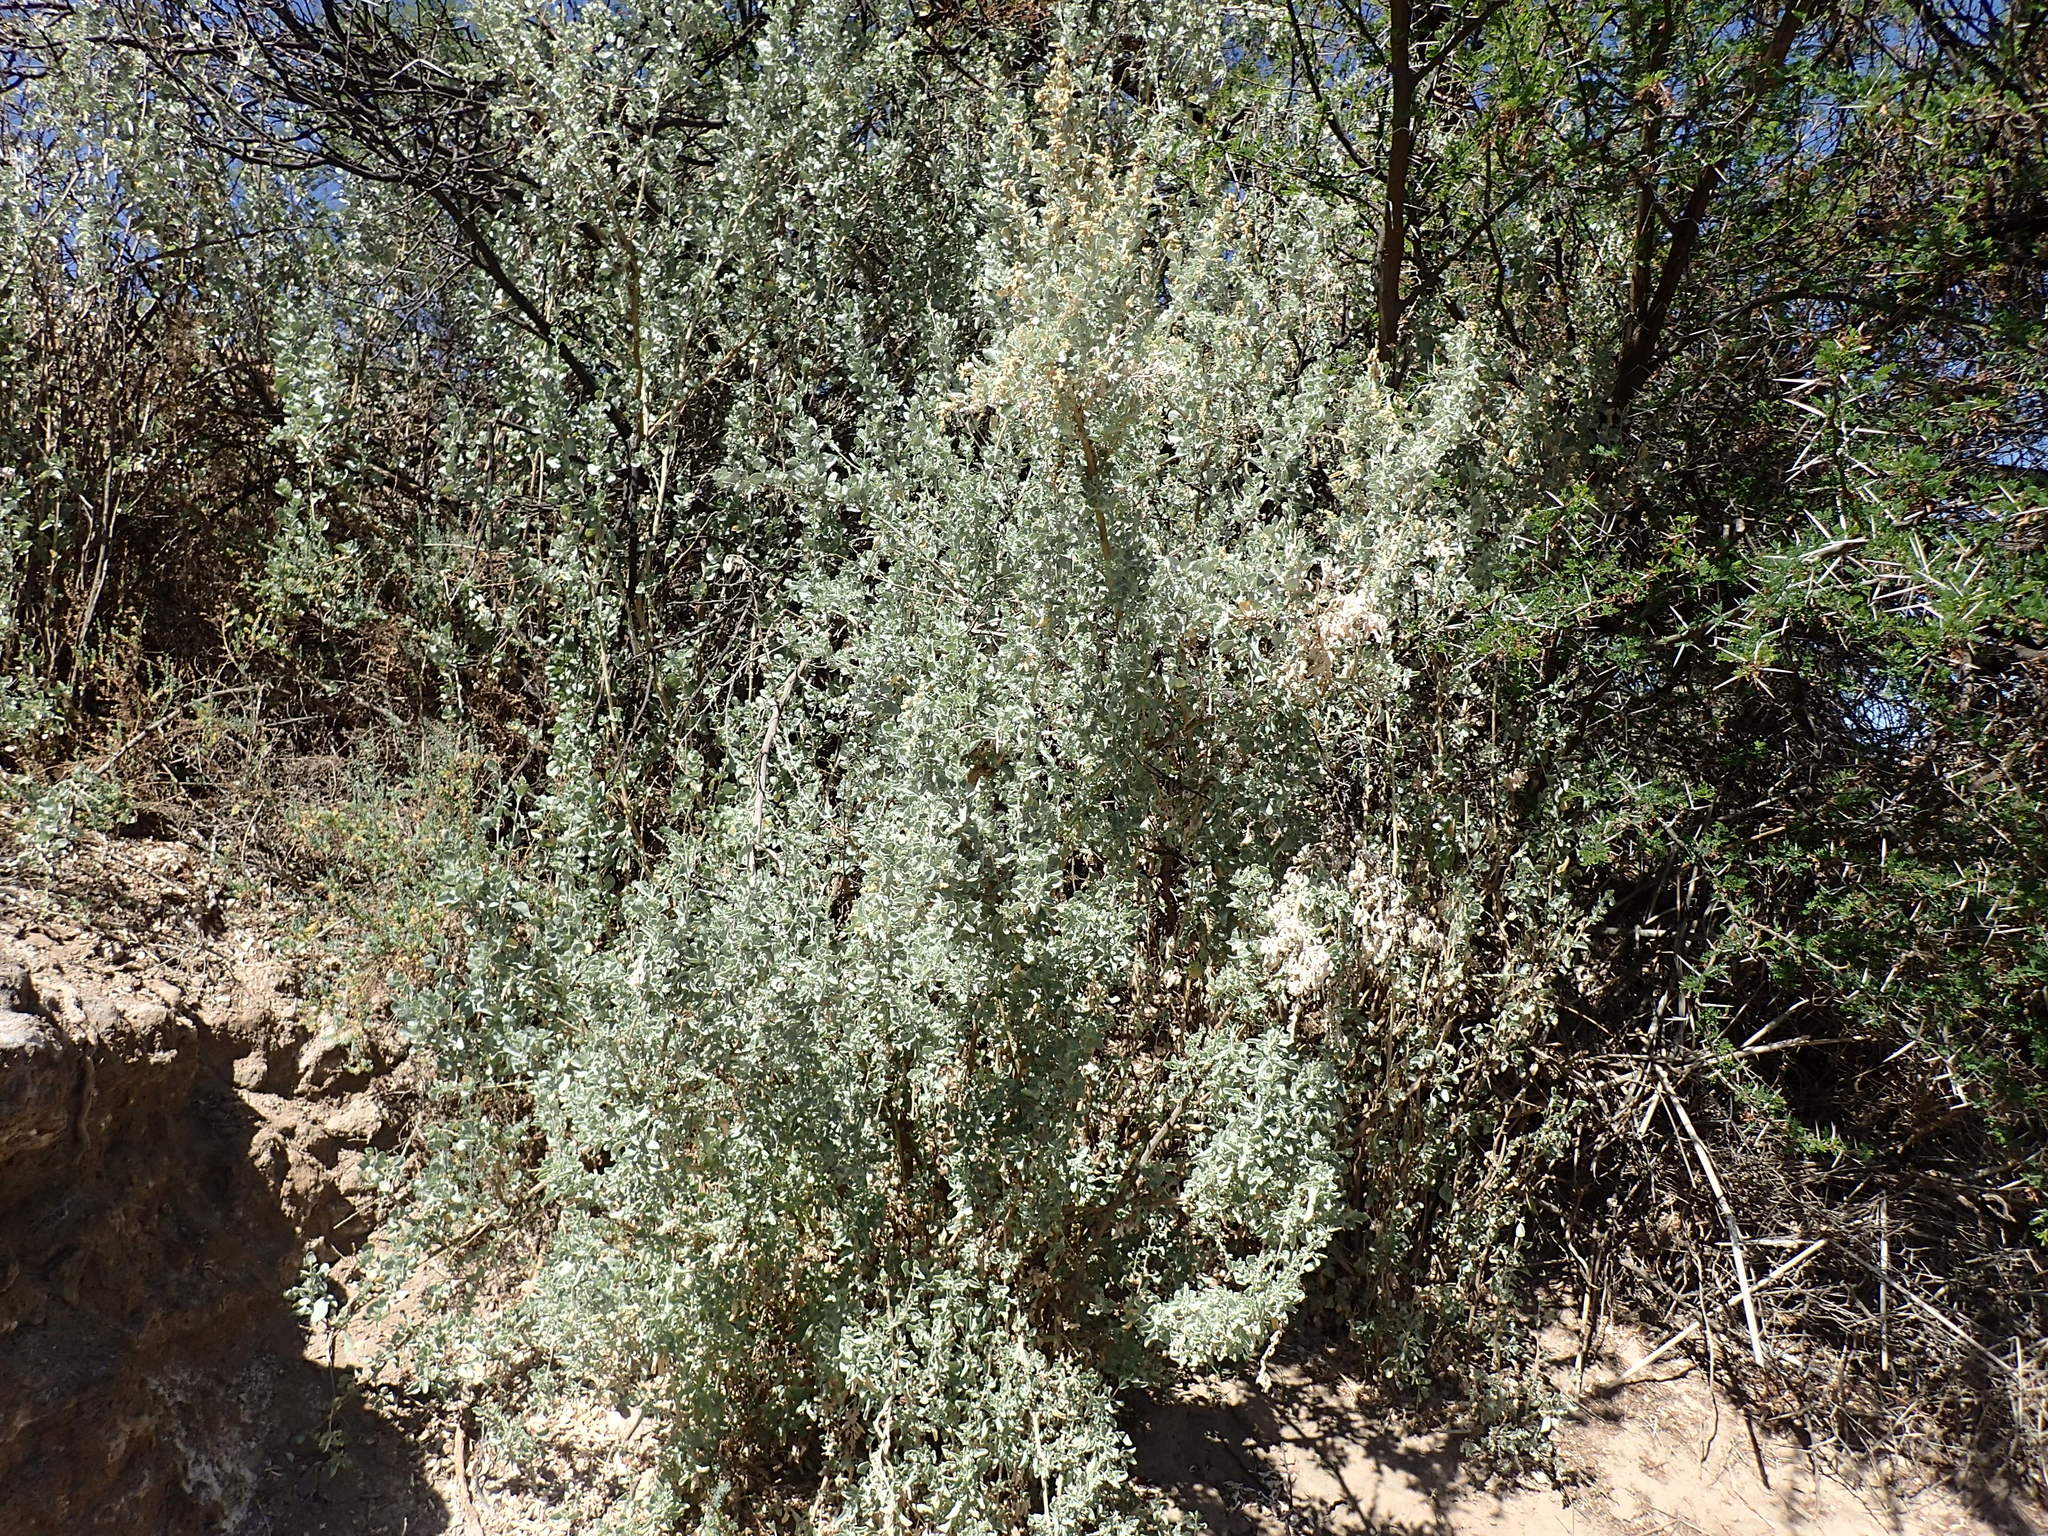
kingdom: Plantae
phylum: Tracheophyta
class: Magnoliopsida
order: Caryophyllales
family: Amaranthaceae
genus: Atriplex
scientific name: Atriplex nummularia
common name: Bluegreen saltbush
